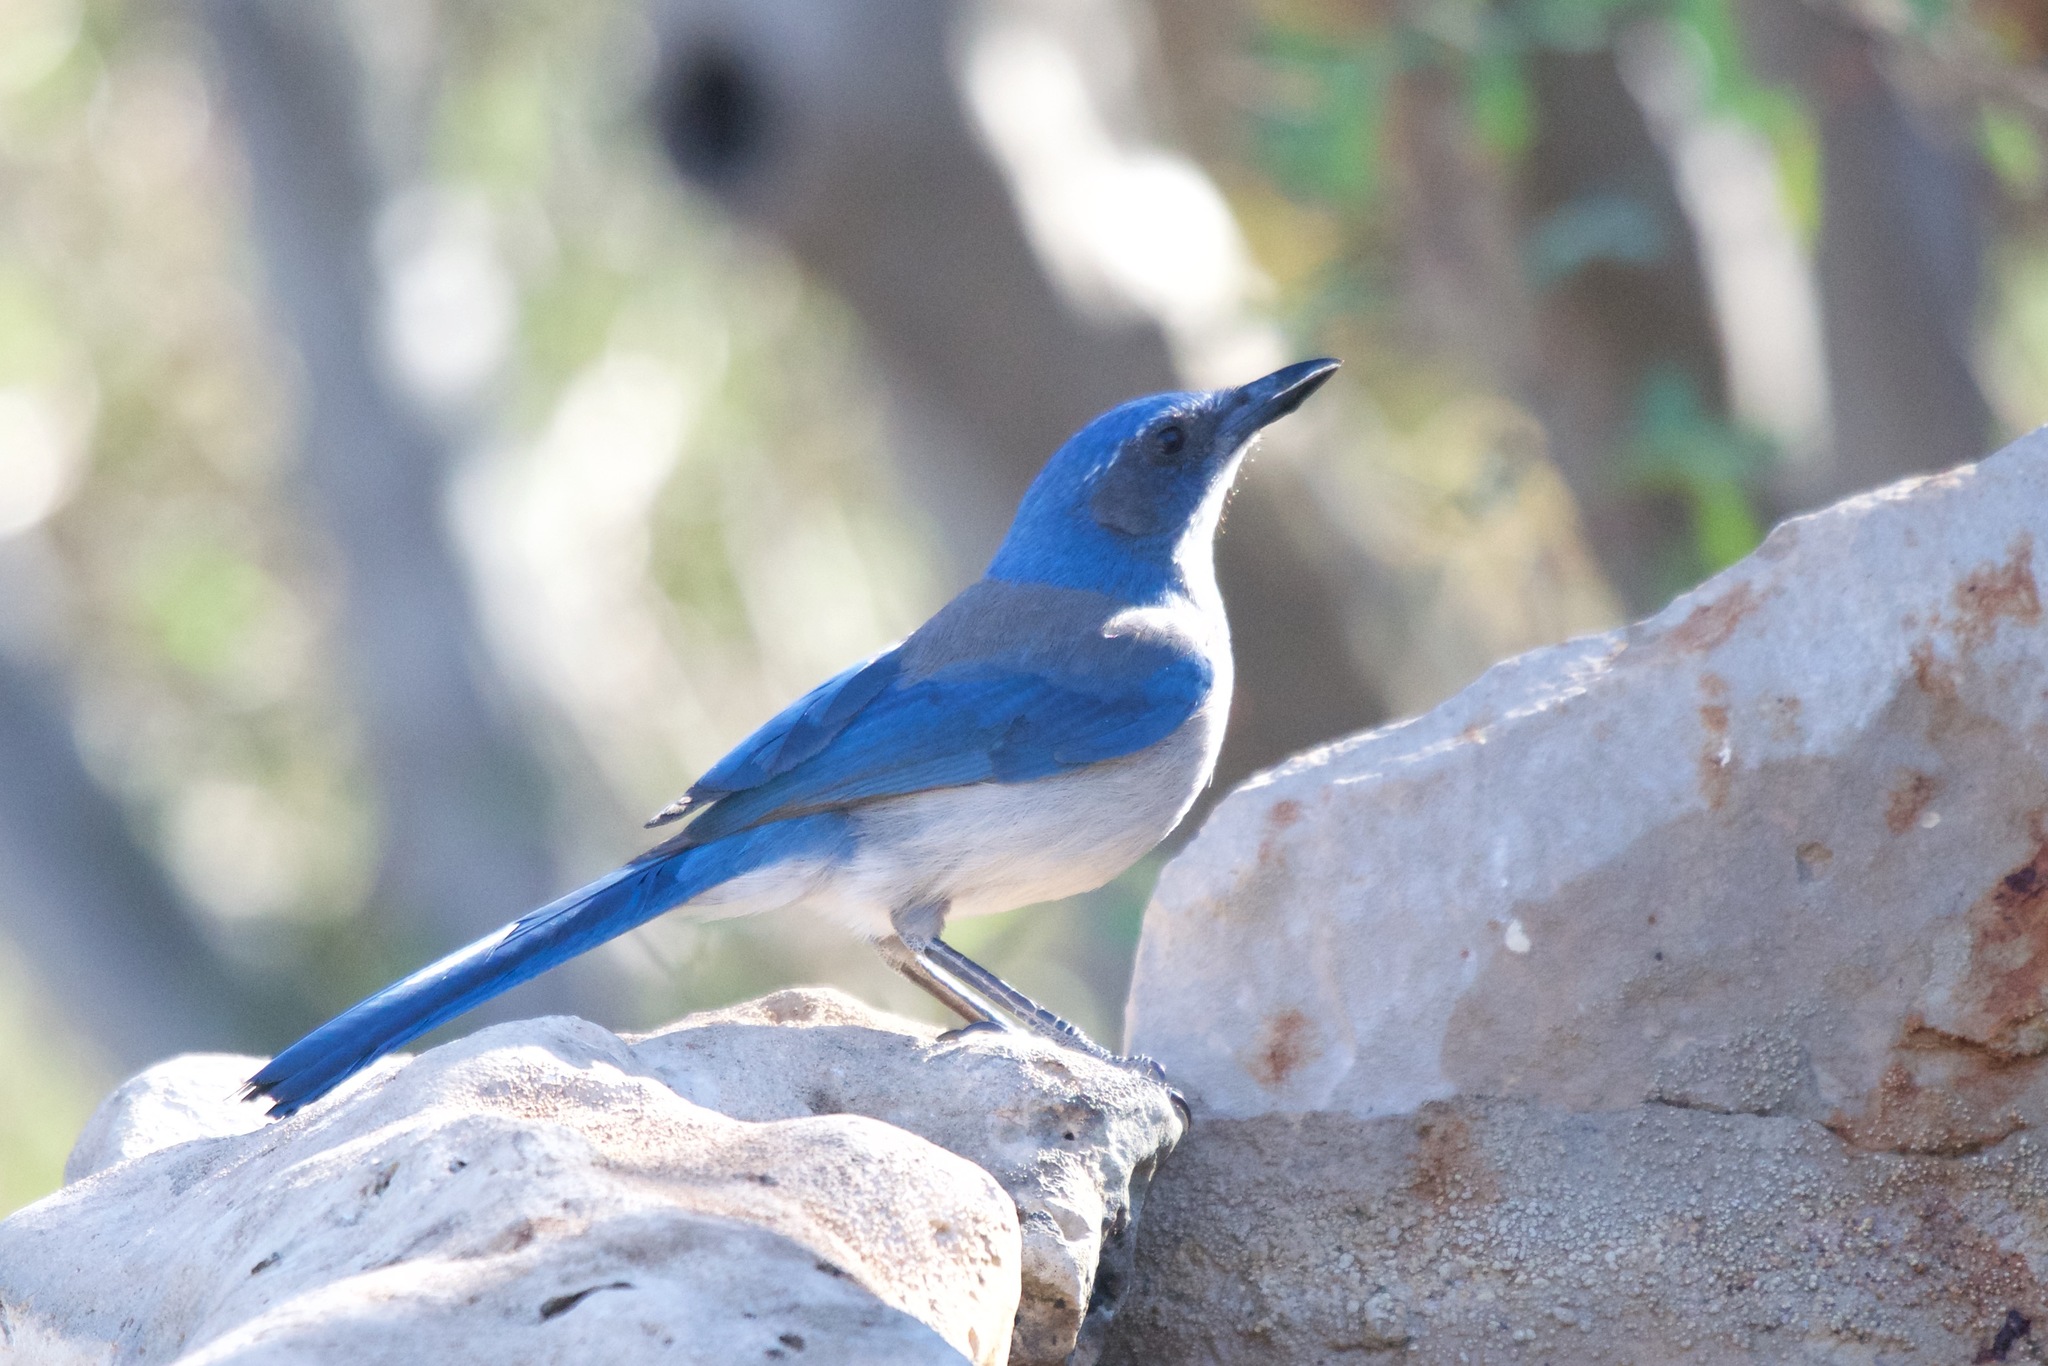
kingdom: Animalia
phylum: Chordata
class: Aves
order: Passeriformes
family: Corvidae
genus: Aphelocoma
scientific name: Aphelocoma woodhouseii
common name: Woodhouse's scrub-jay
